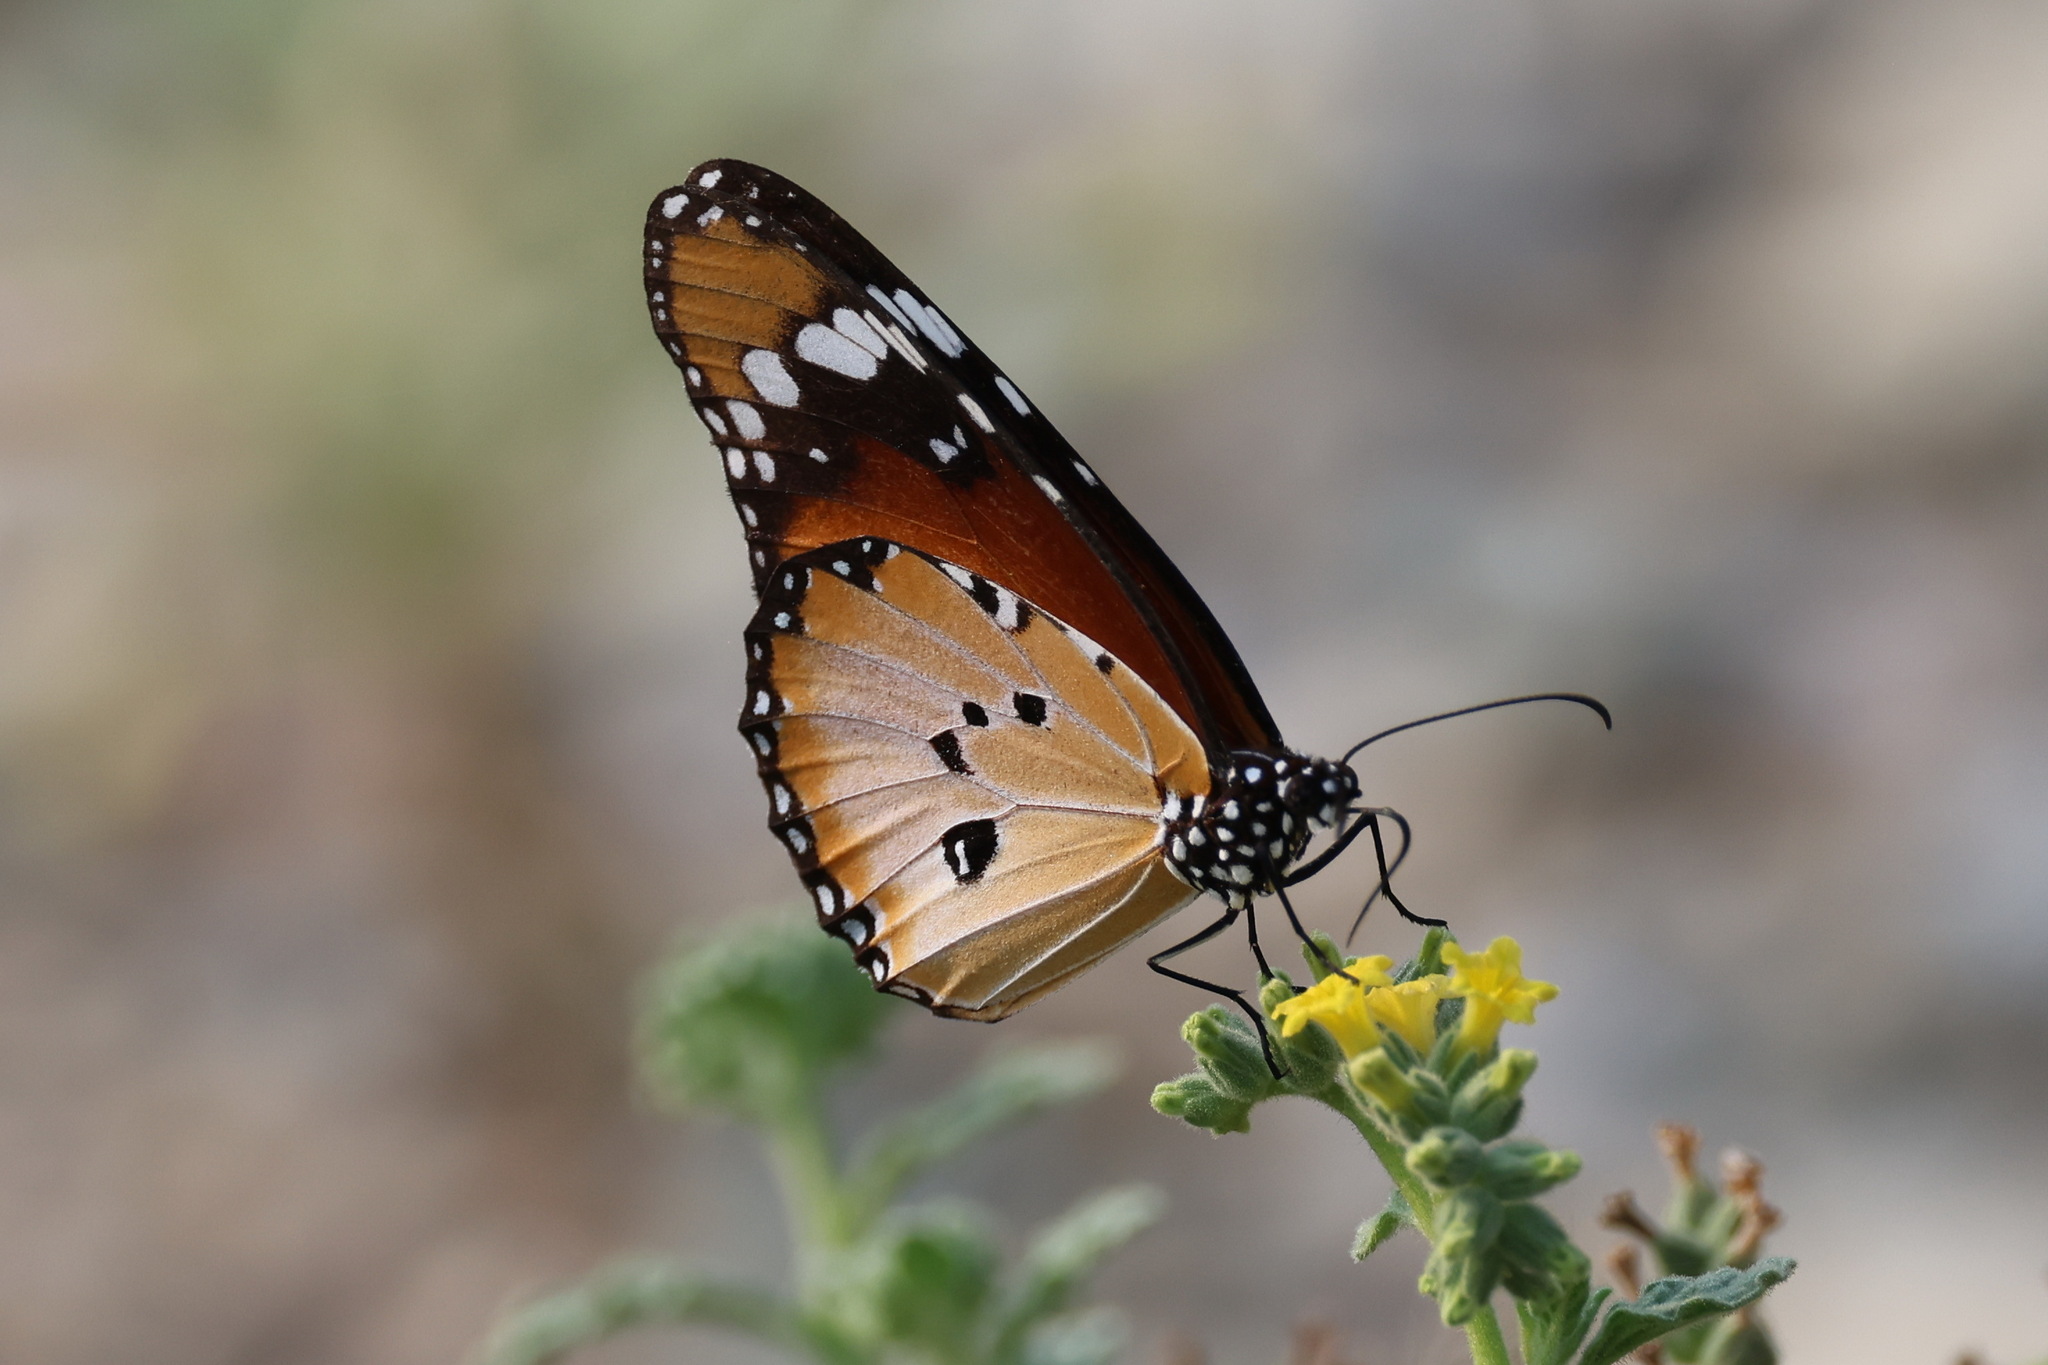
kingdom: Animalia
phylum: Arthropoda
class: Insecta
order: Lepidoptera
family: Nymphalidae
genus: Danaus
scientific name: Danaus chrysippus
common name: Plain tiger
